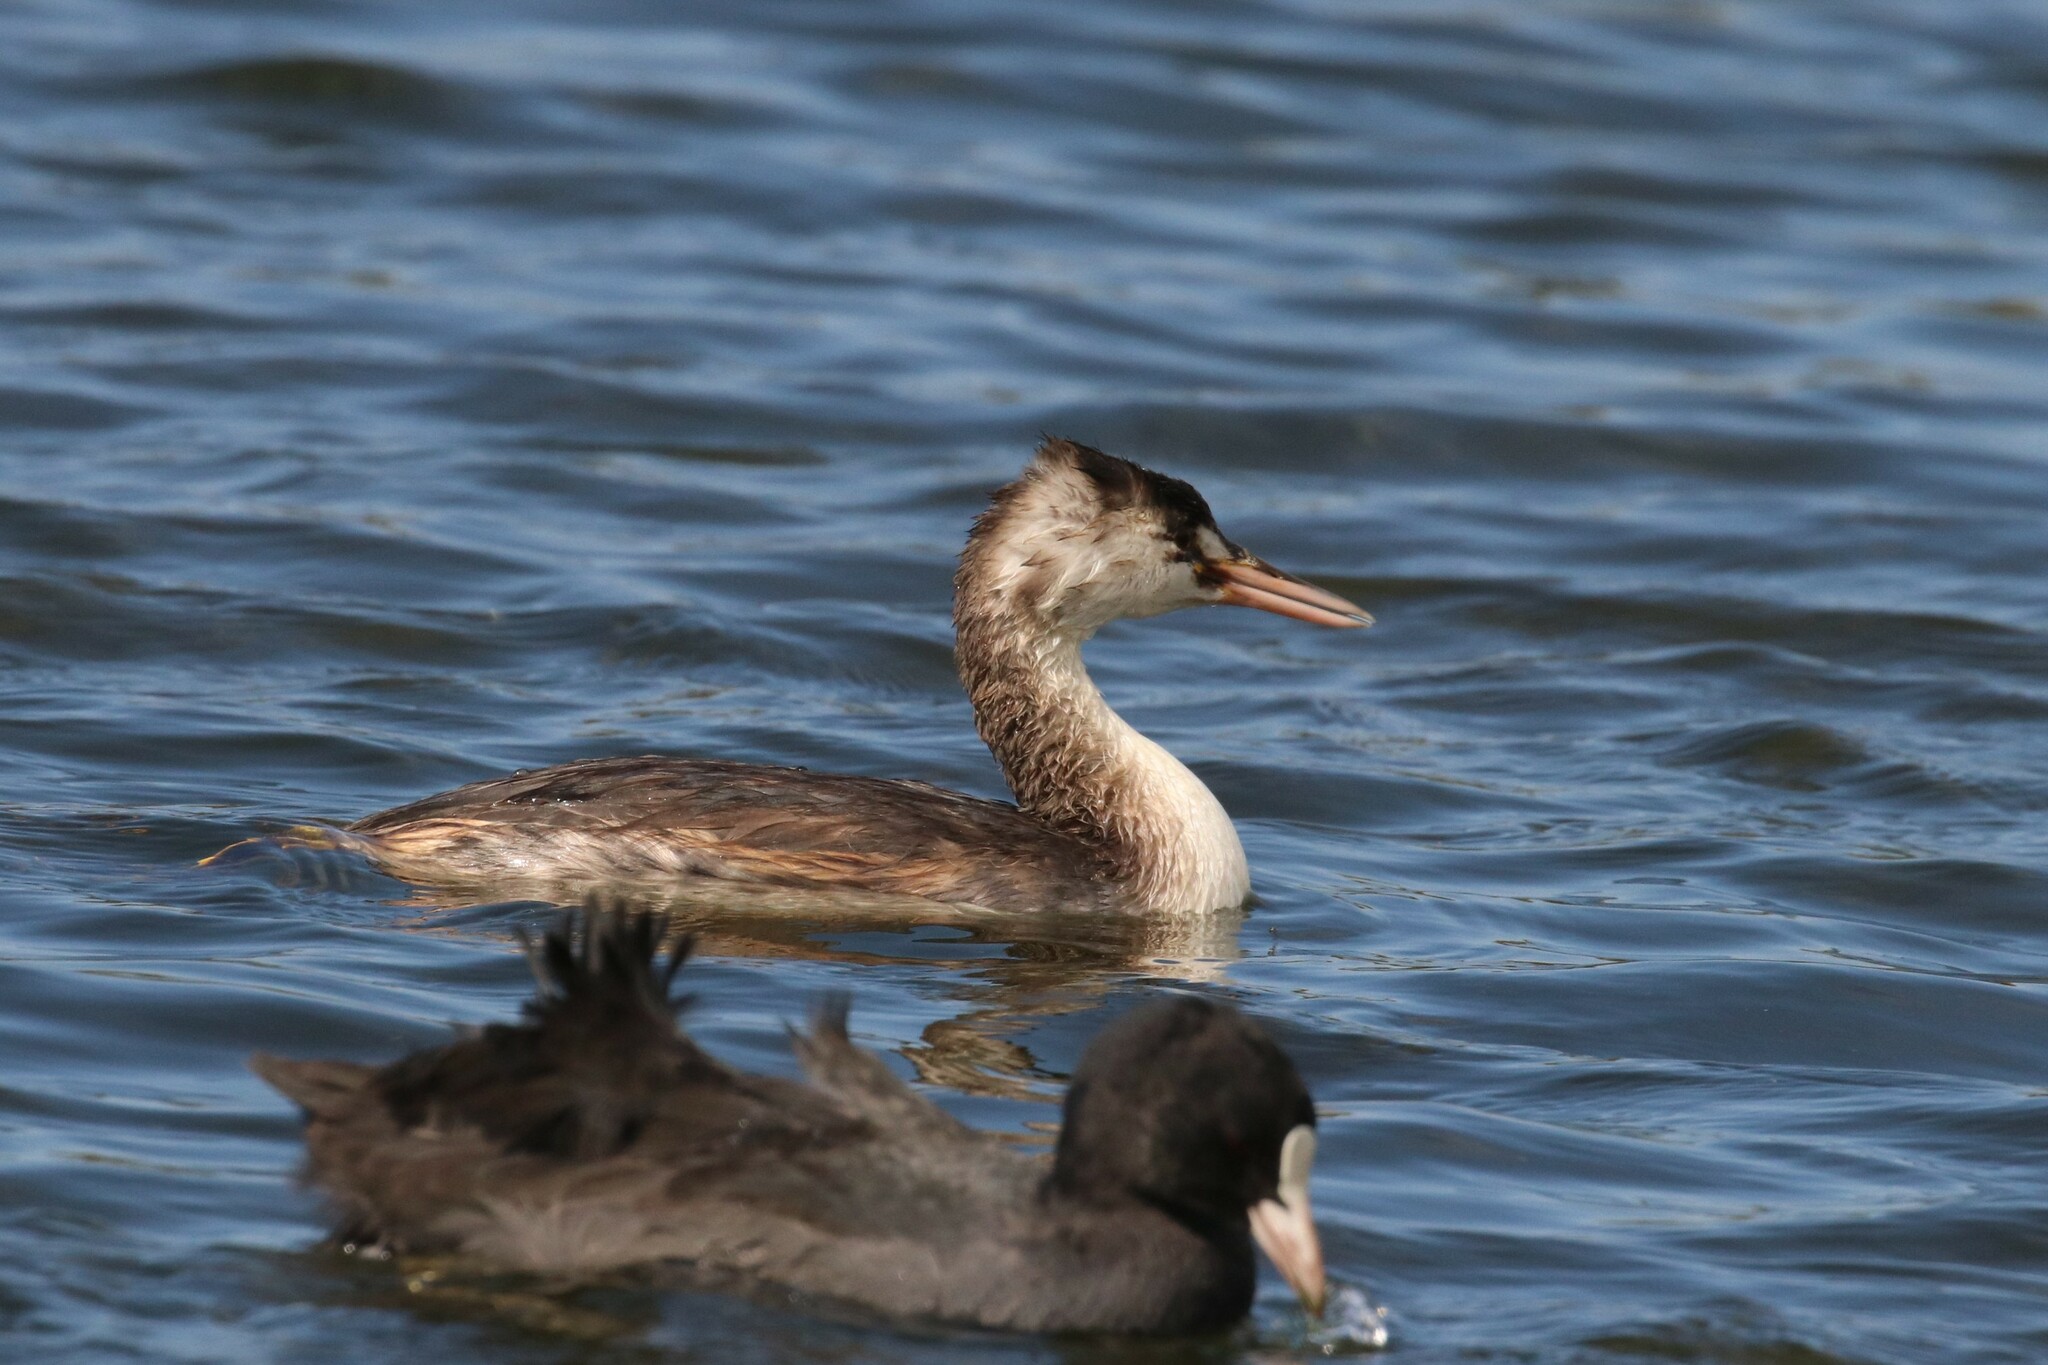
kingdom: Animalia
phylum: Chordata
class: Aves
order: Podicipediformes
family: Podicipedidae
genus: Podiceps
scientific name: Podiceps cristatus
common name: Great crested grebe
